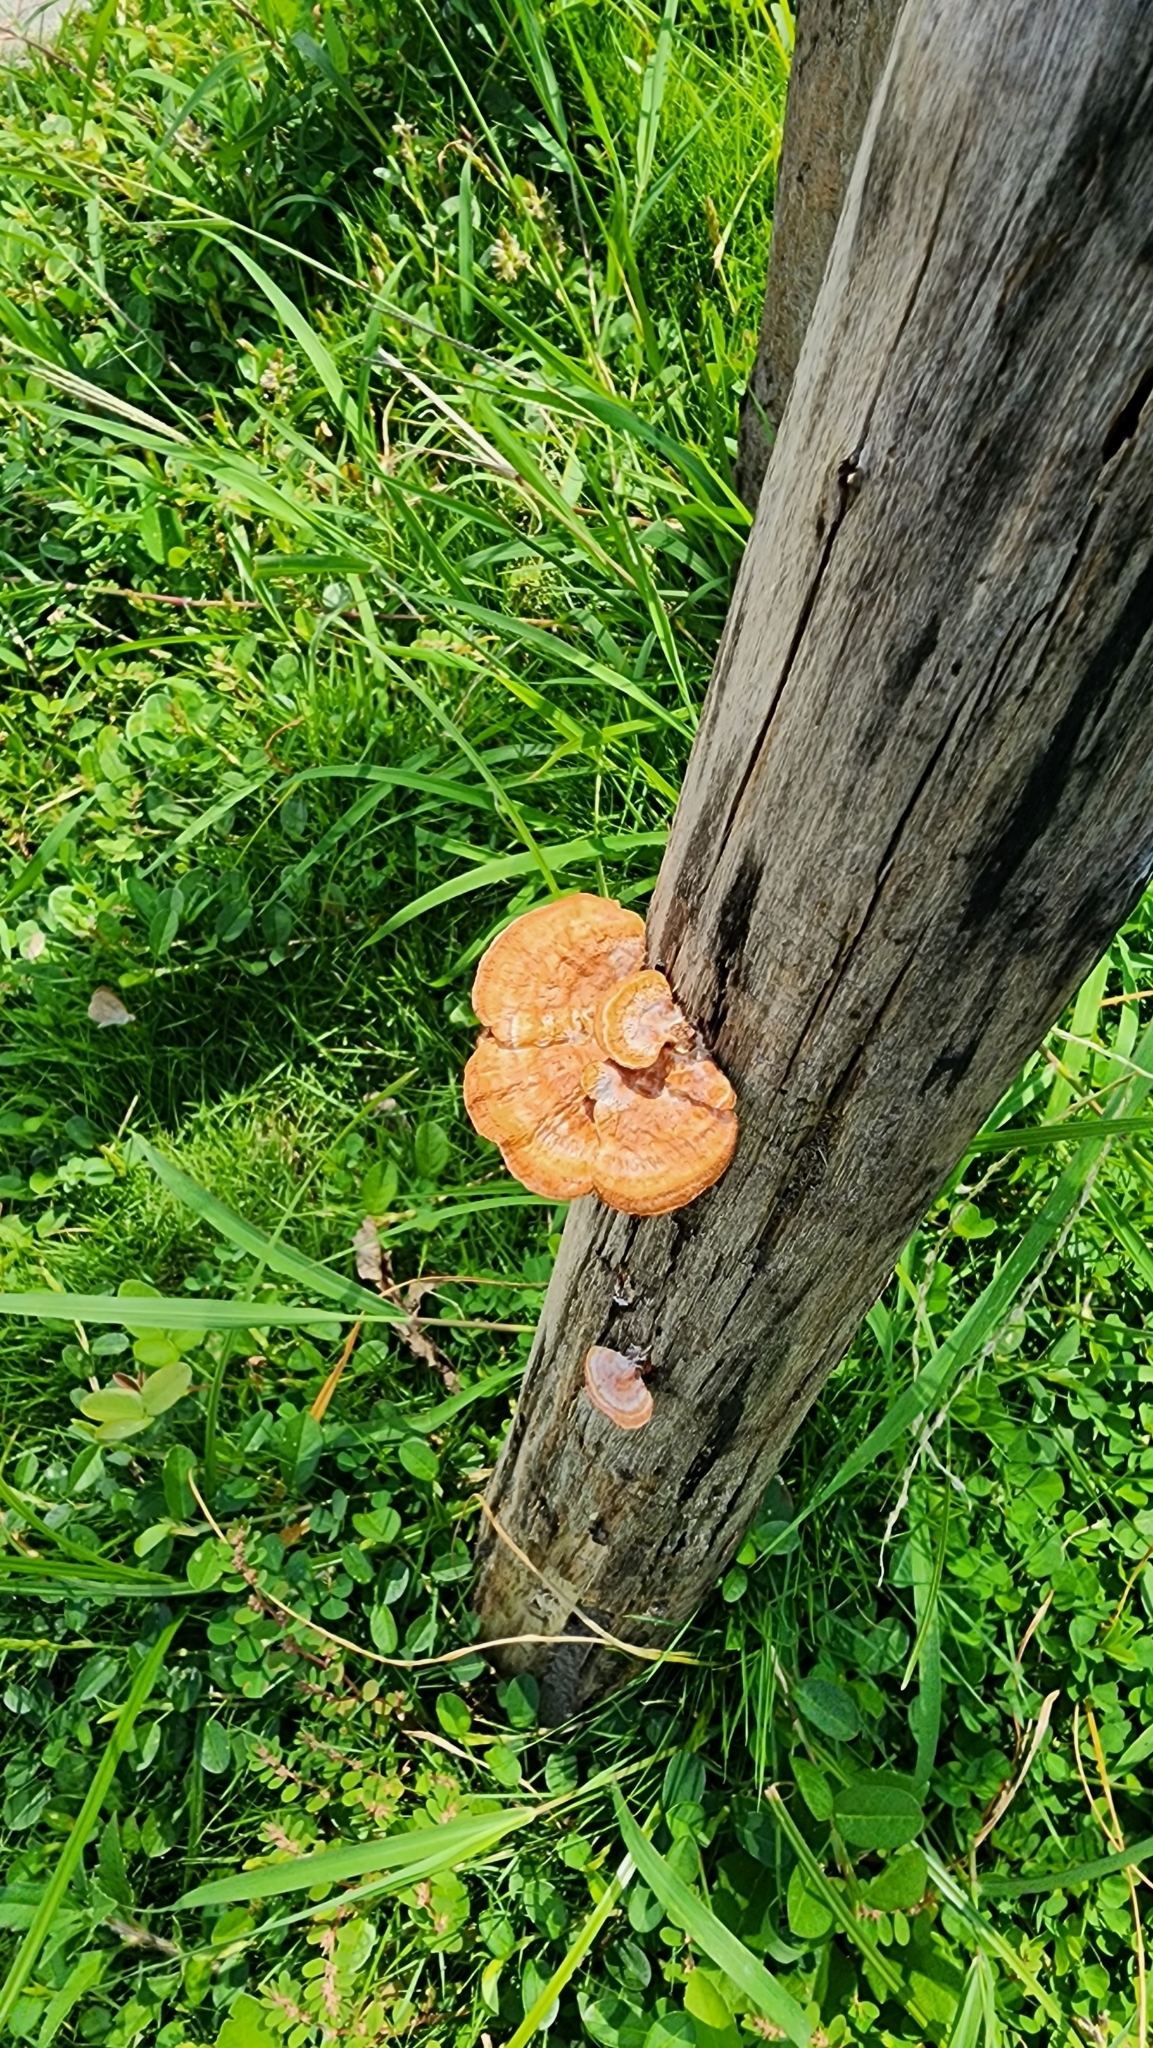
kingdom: Fungi
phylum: Basidiomycota
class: Agaricomycetes
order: Polyporales
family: Polyporaceae
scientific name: Polyporaceae
